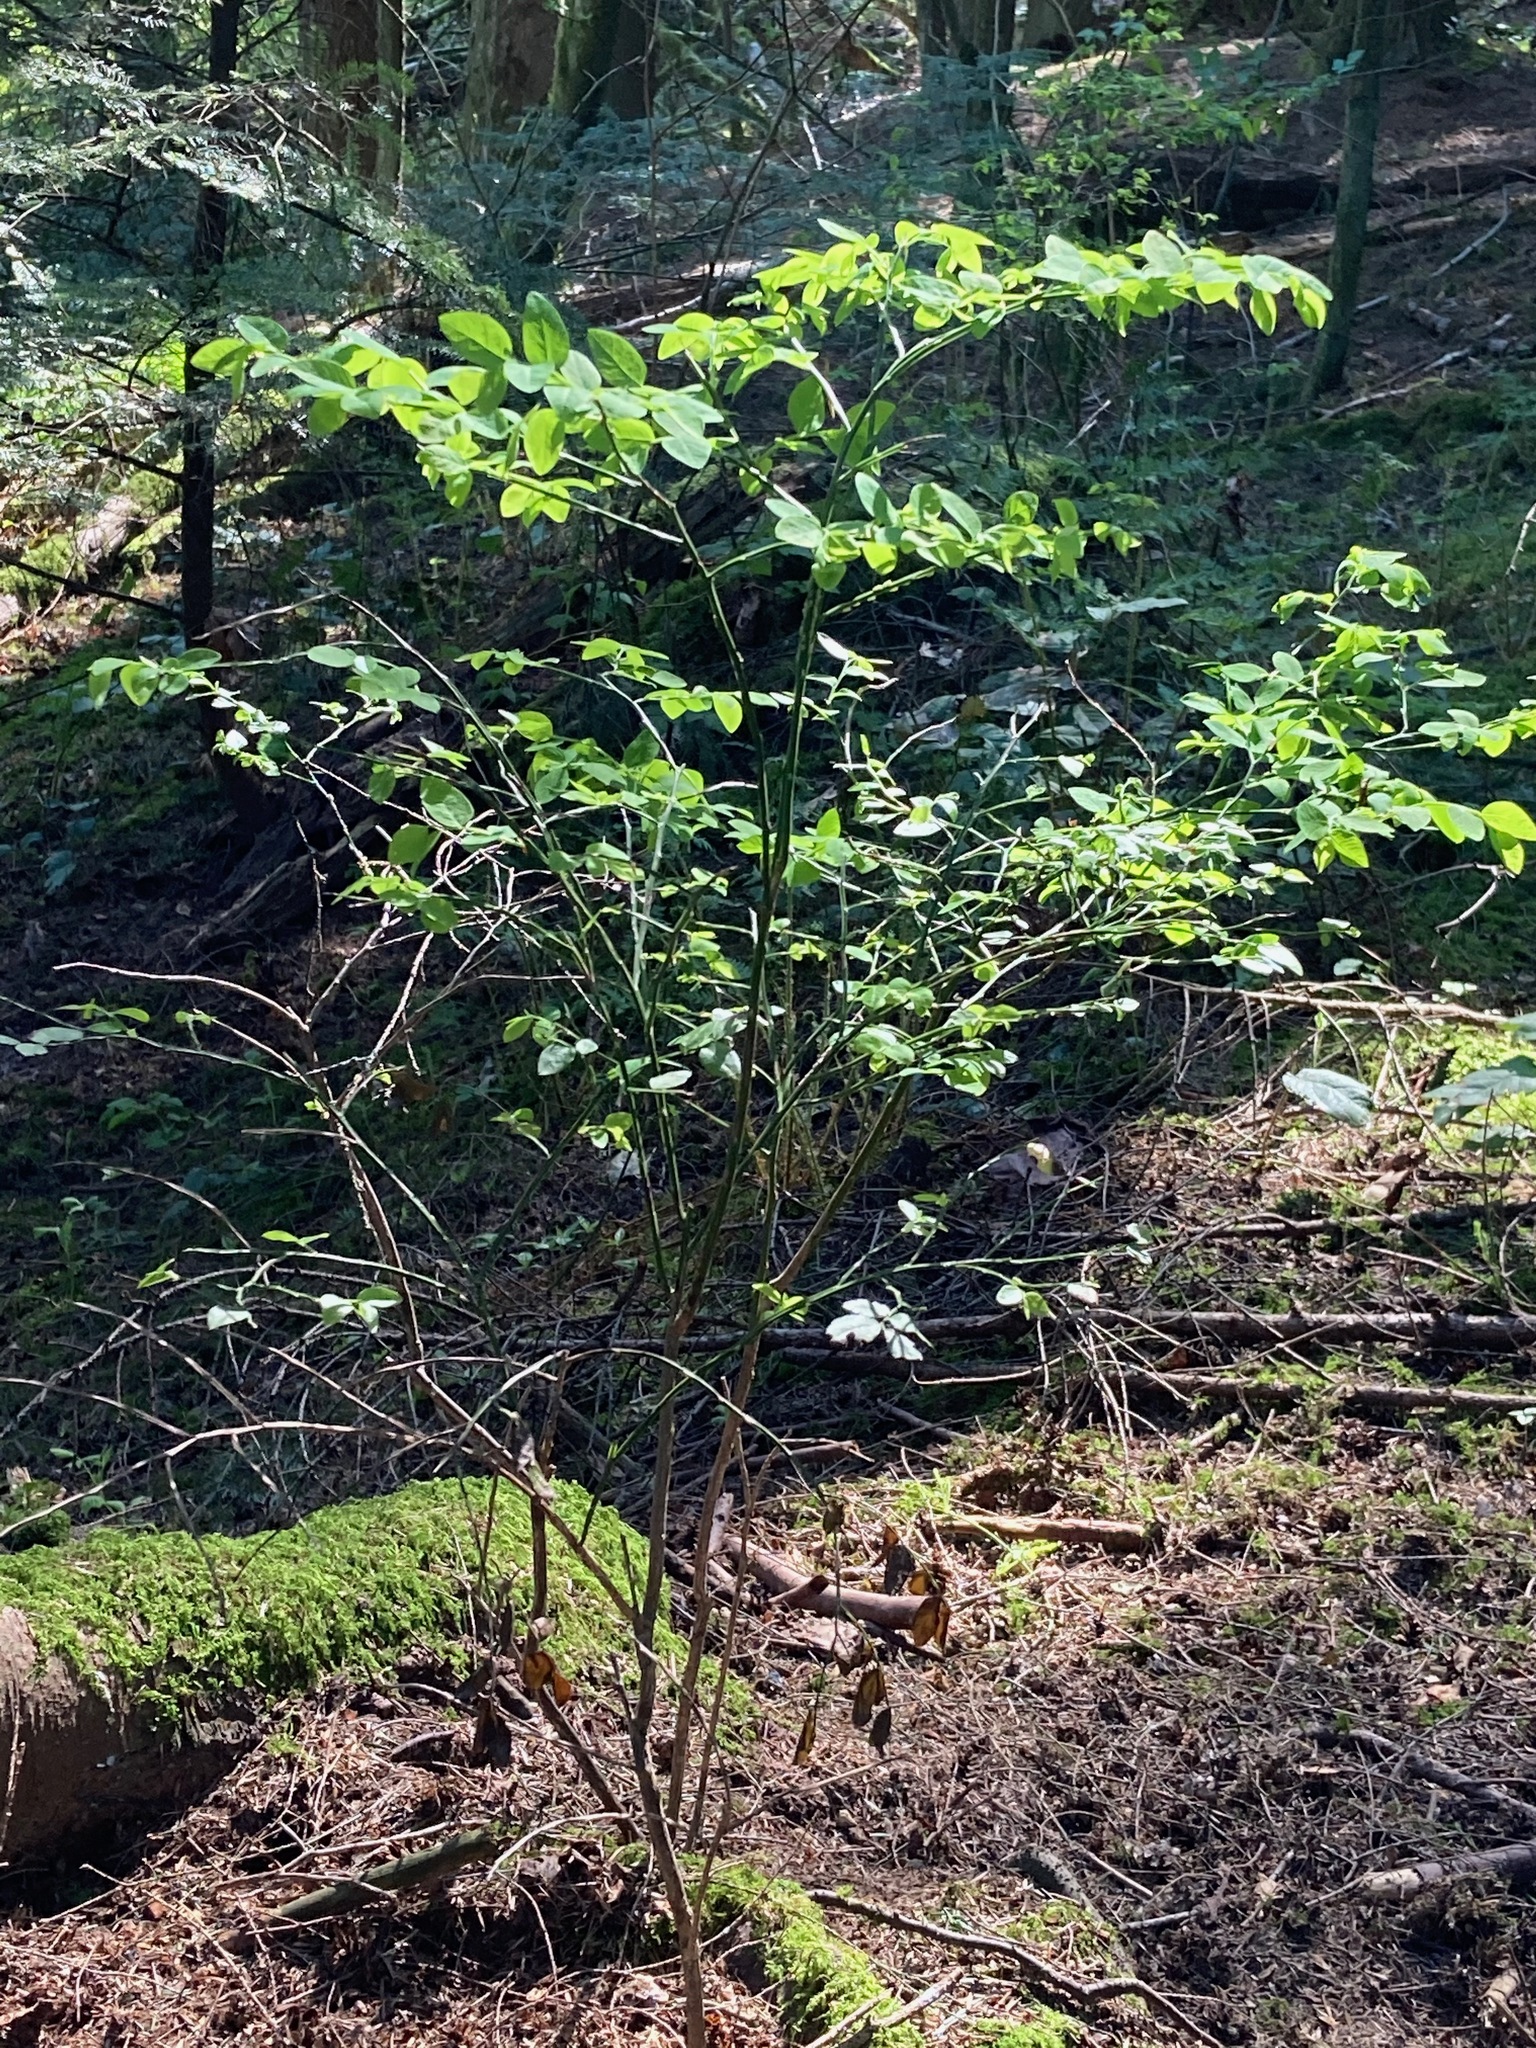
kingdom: Plantae
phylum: Tracheophyta
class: Magnoliopsida
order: Ericales
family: Ericaceae
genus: Vaccinium
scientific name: Vaccinium parvifolium
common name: Red-huckleberry
